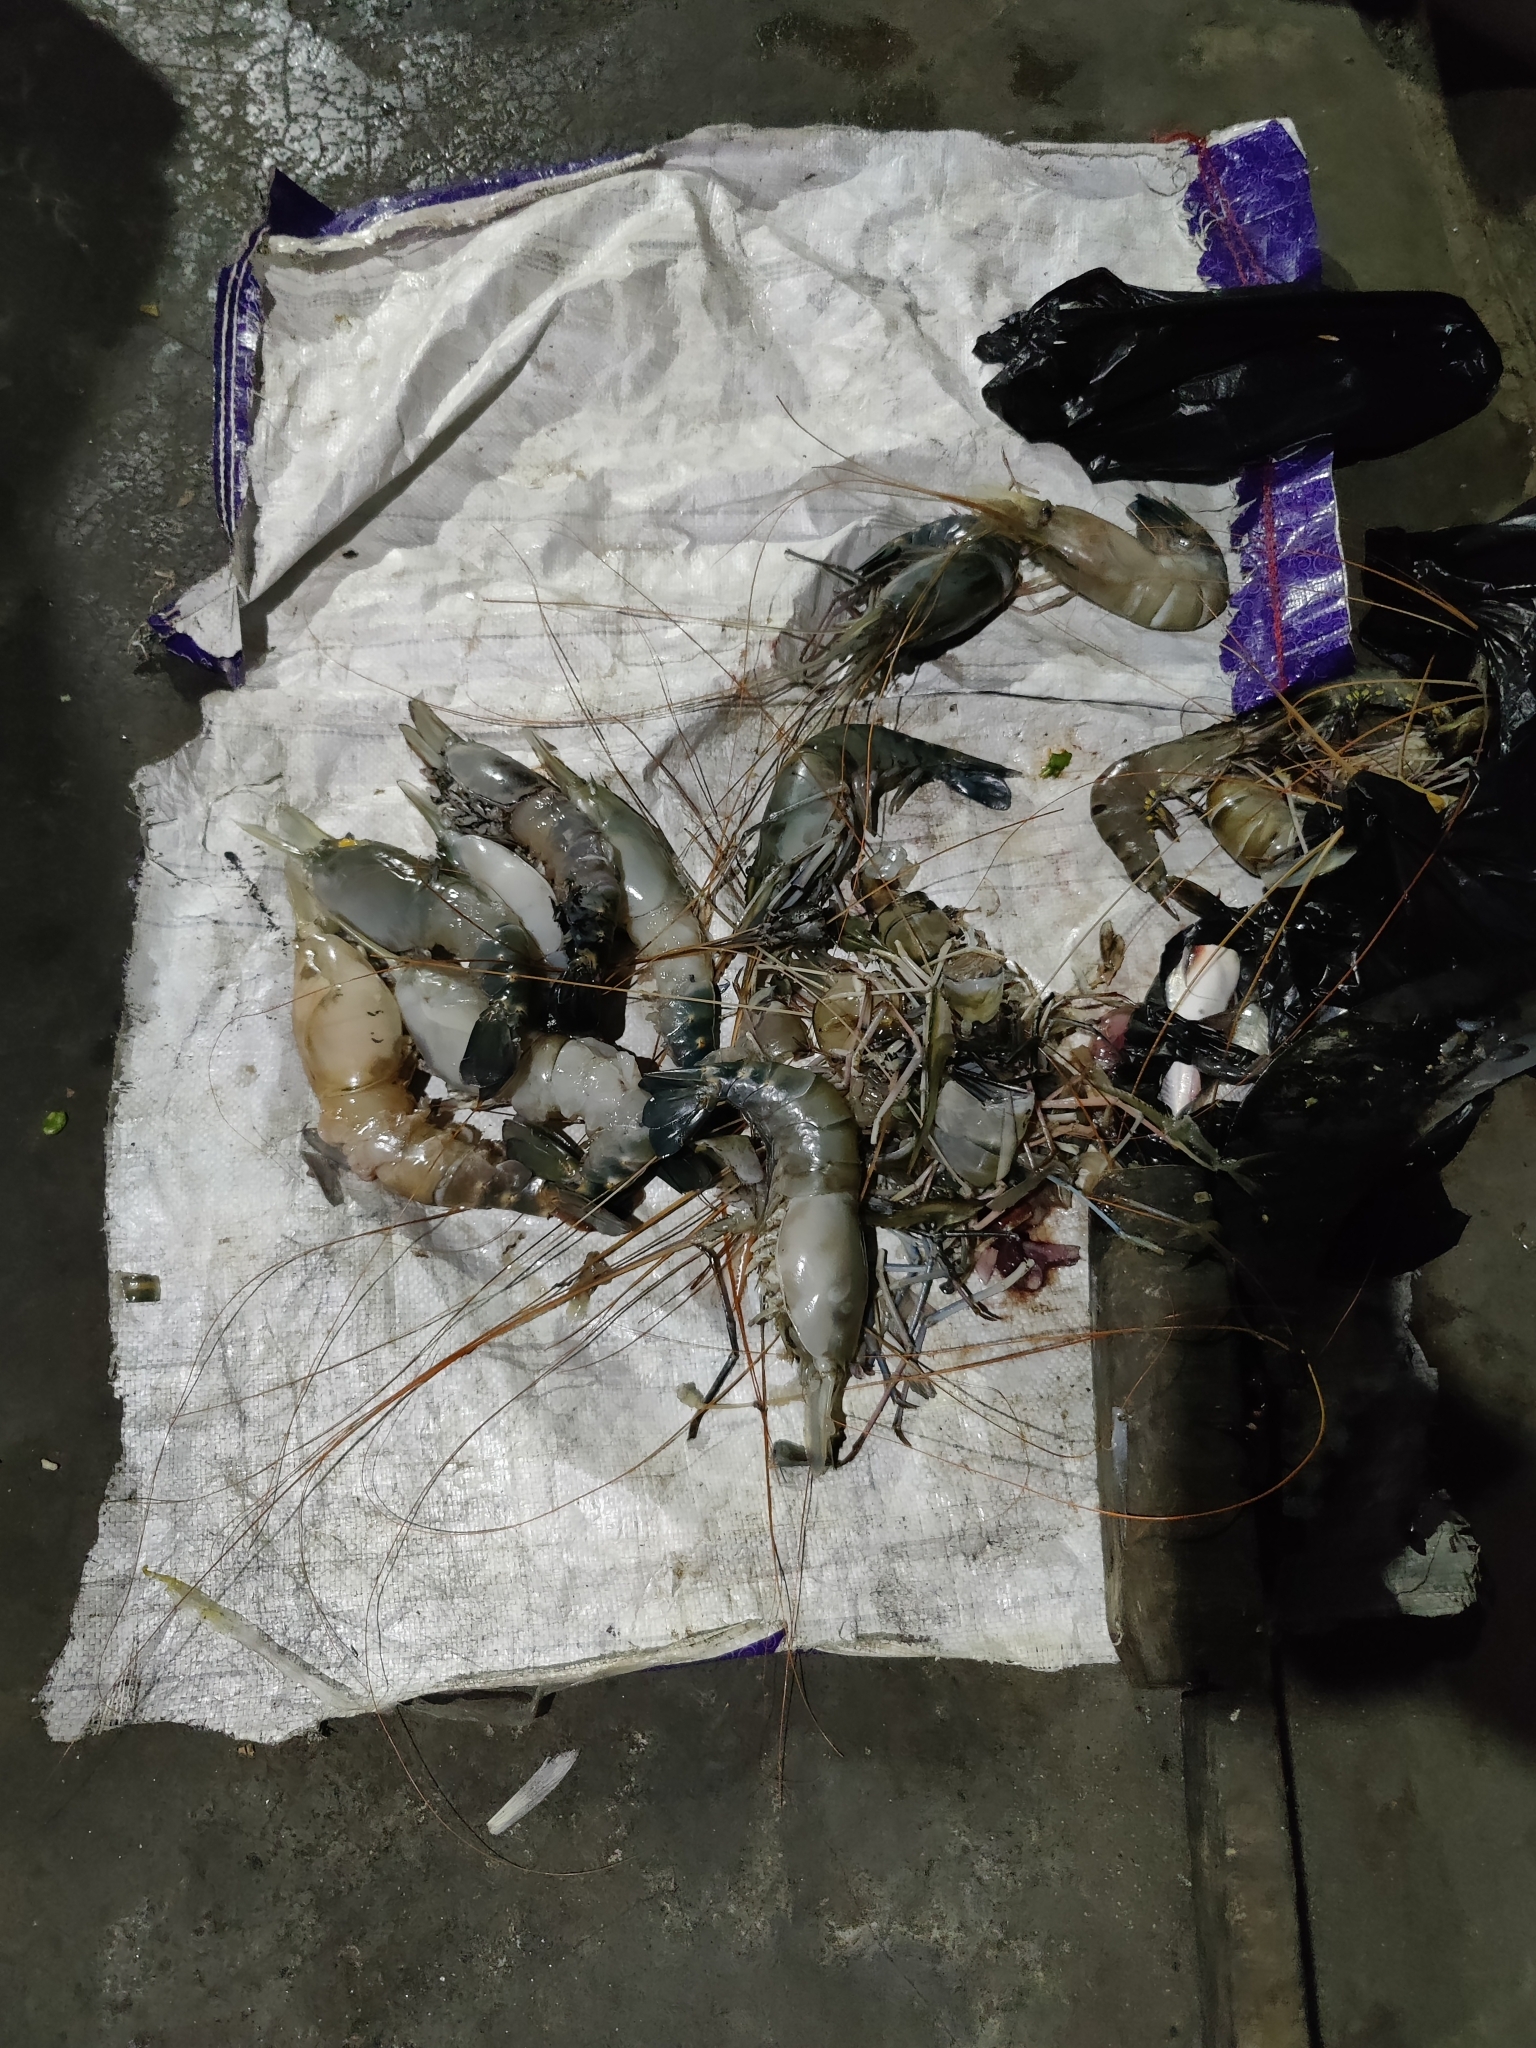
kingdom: Animalia
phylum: Arthropoda
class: Malacostraca
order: Decapoda
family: Palaemonidae
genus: Macrobrachium
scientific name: Macrobrachium rosenbergii
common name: Giant river prawn
